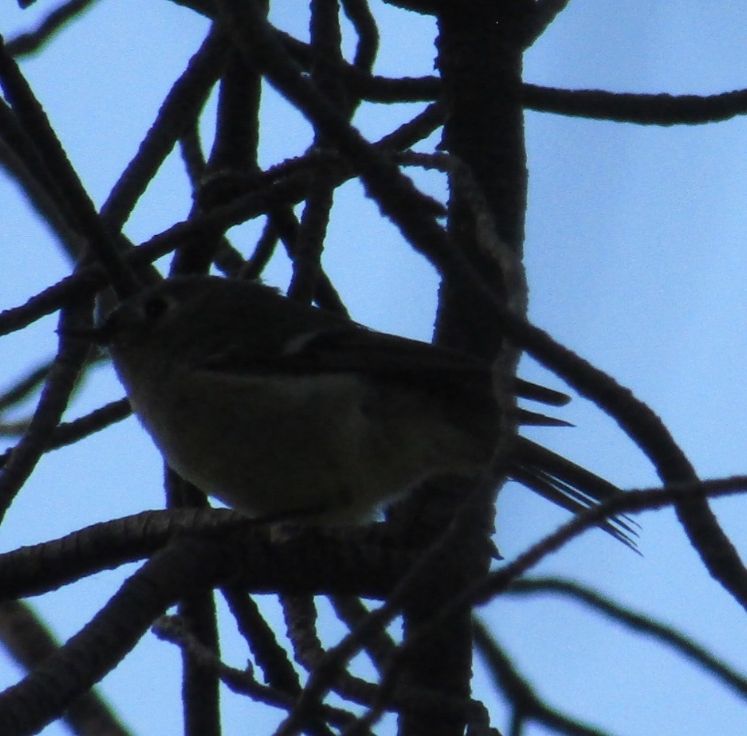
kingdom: Animalia
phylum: Chordata
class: Aves
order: Passeriformes
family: Regulidae
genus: Regulus
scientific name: Regulus calendula
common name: Ruby-crowned kinglet
